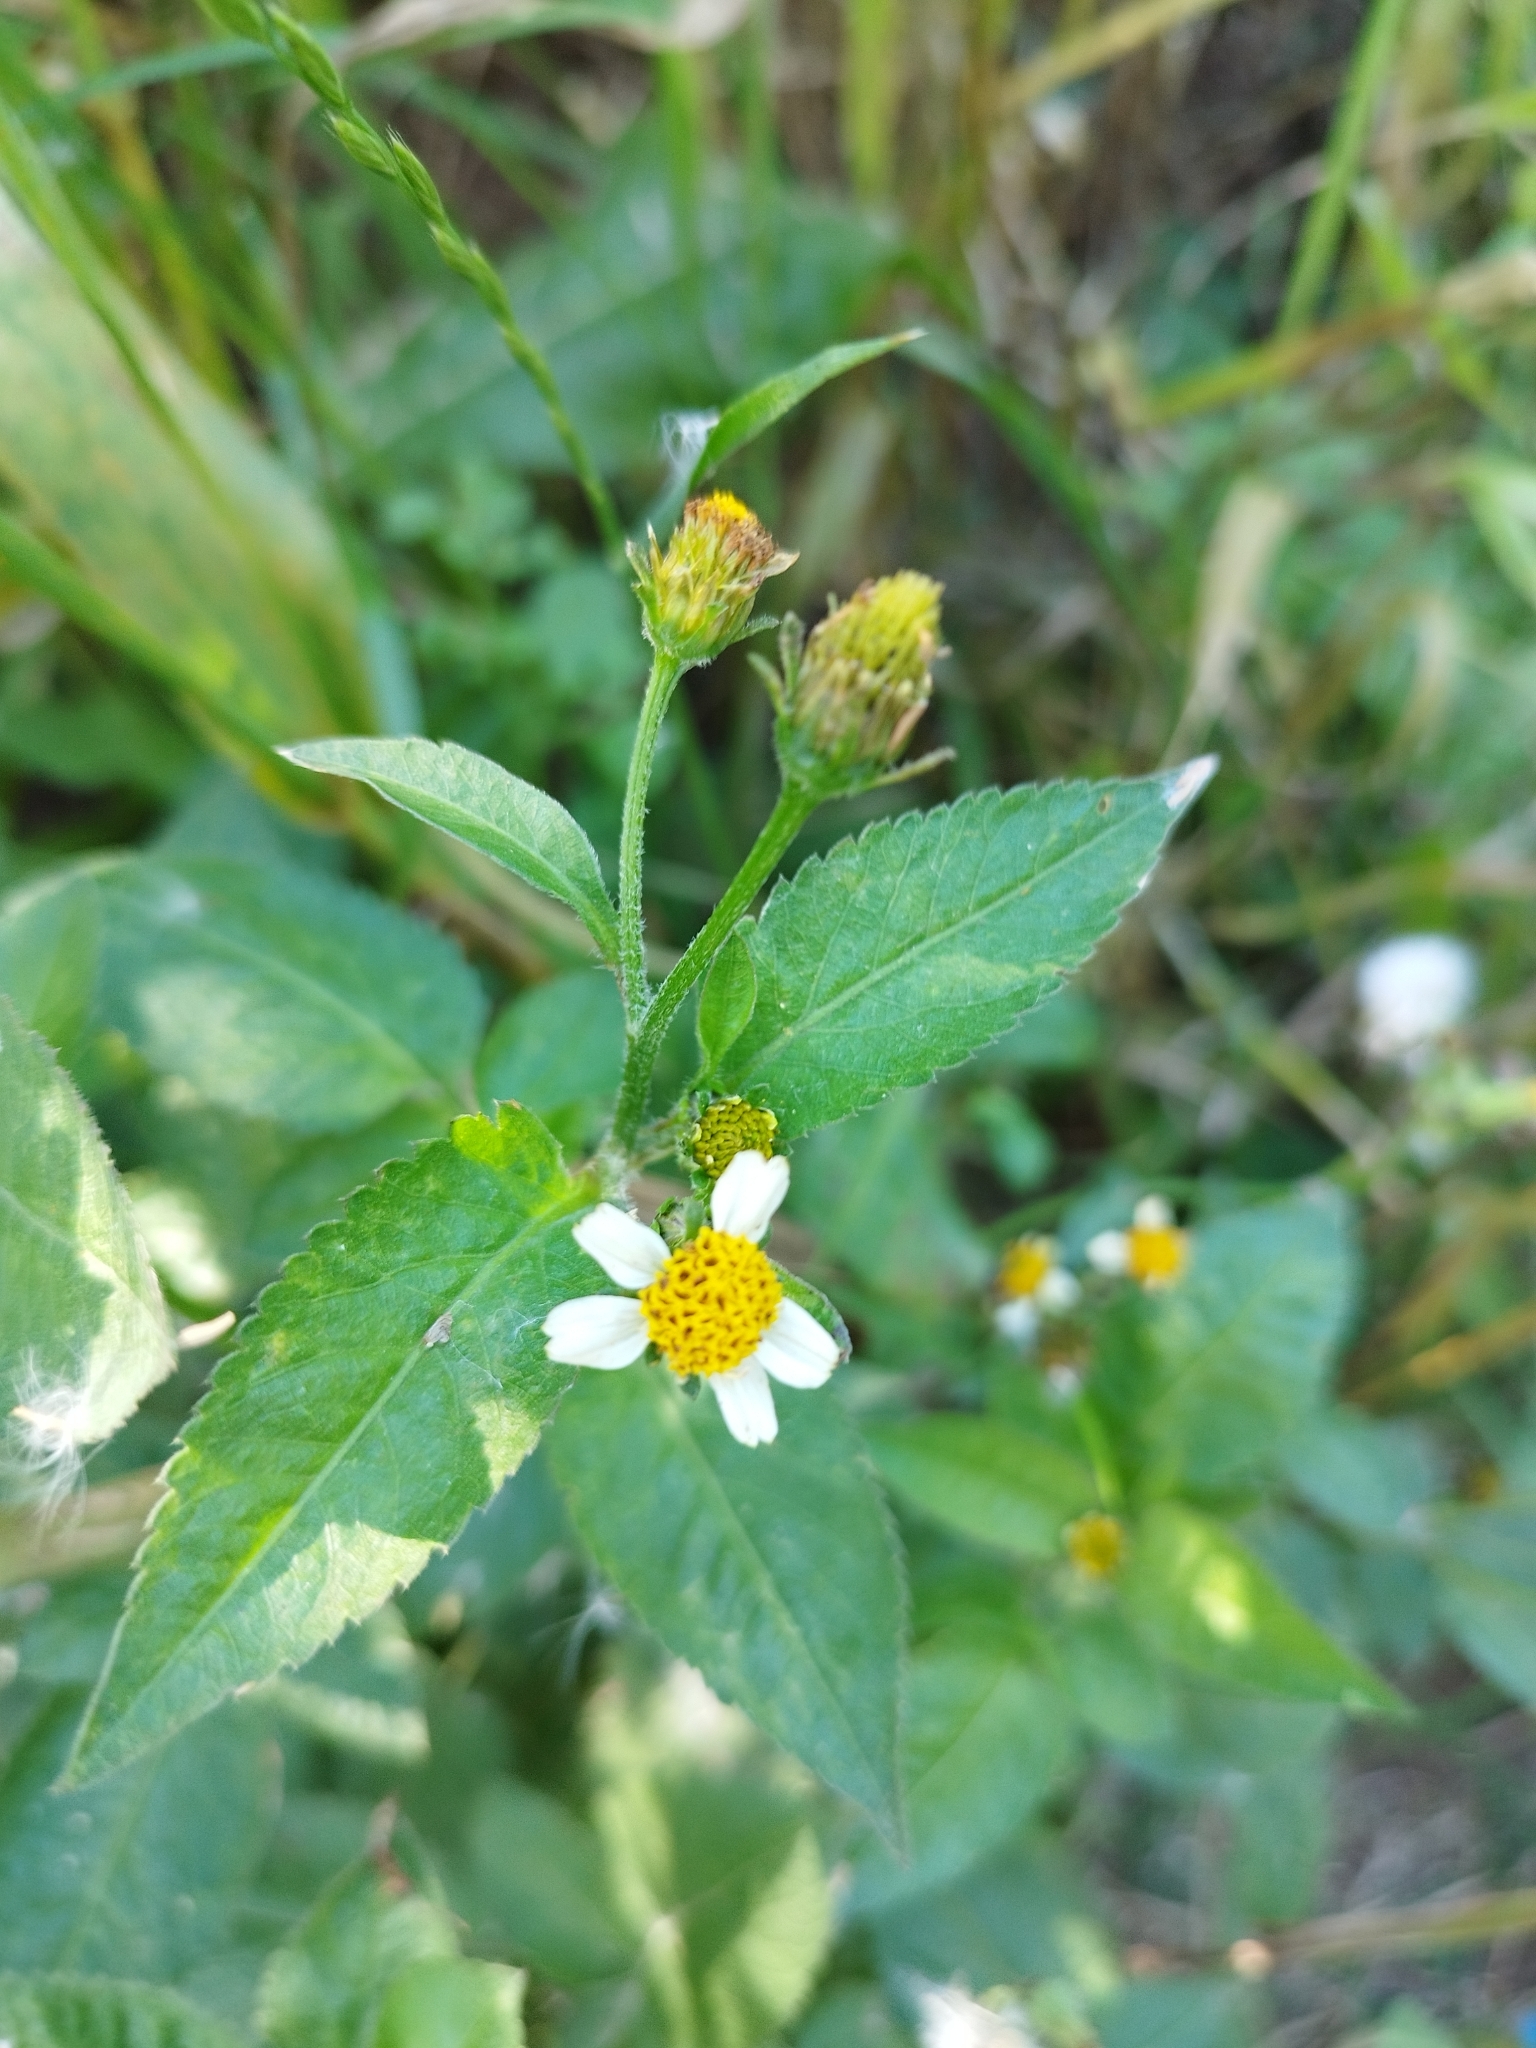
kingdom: Plantae
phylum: Tracheophyta
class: Magnoliopsida
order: Asterales
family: Asteraceae
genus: Bidens
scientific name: Bidens pilosa
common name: Black-jack
